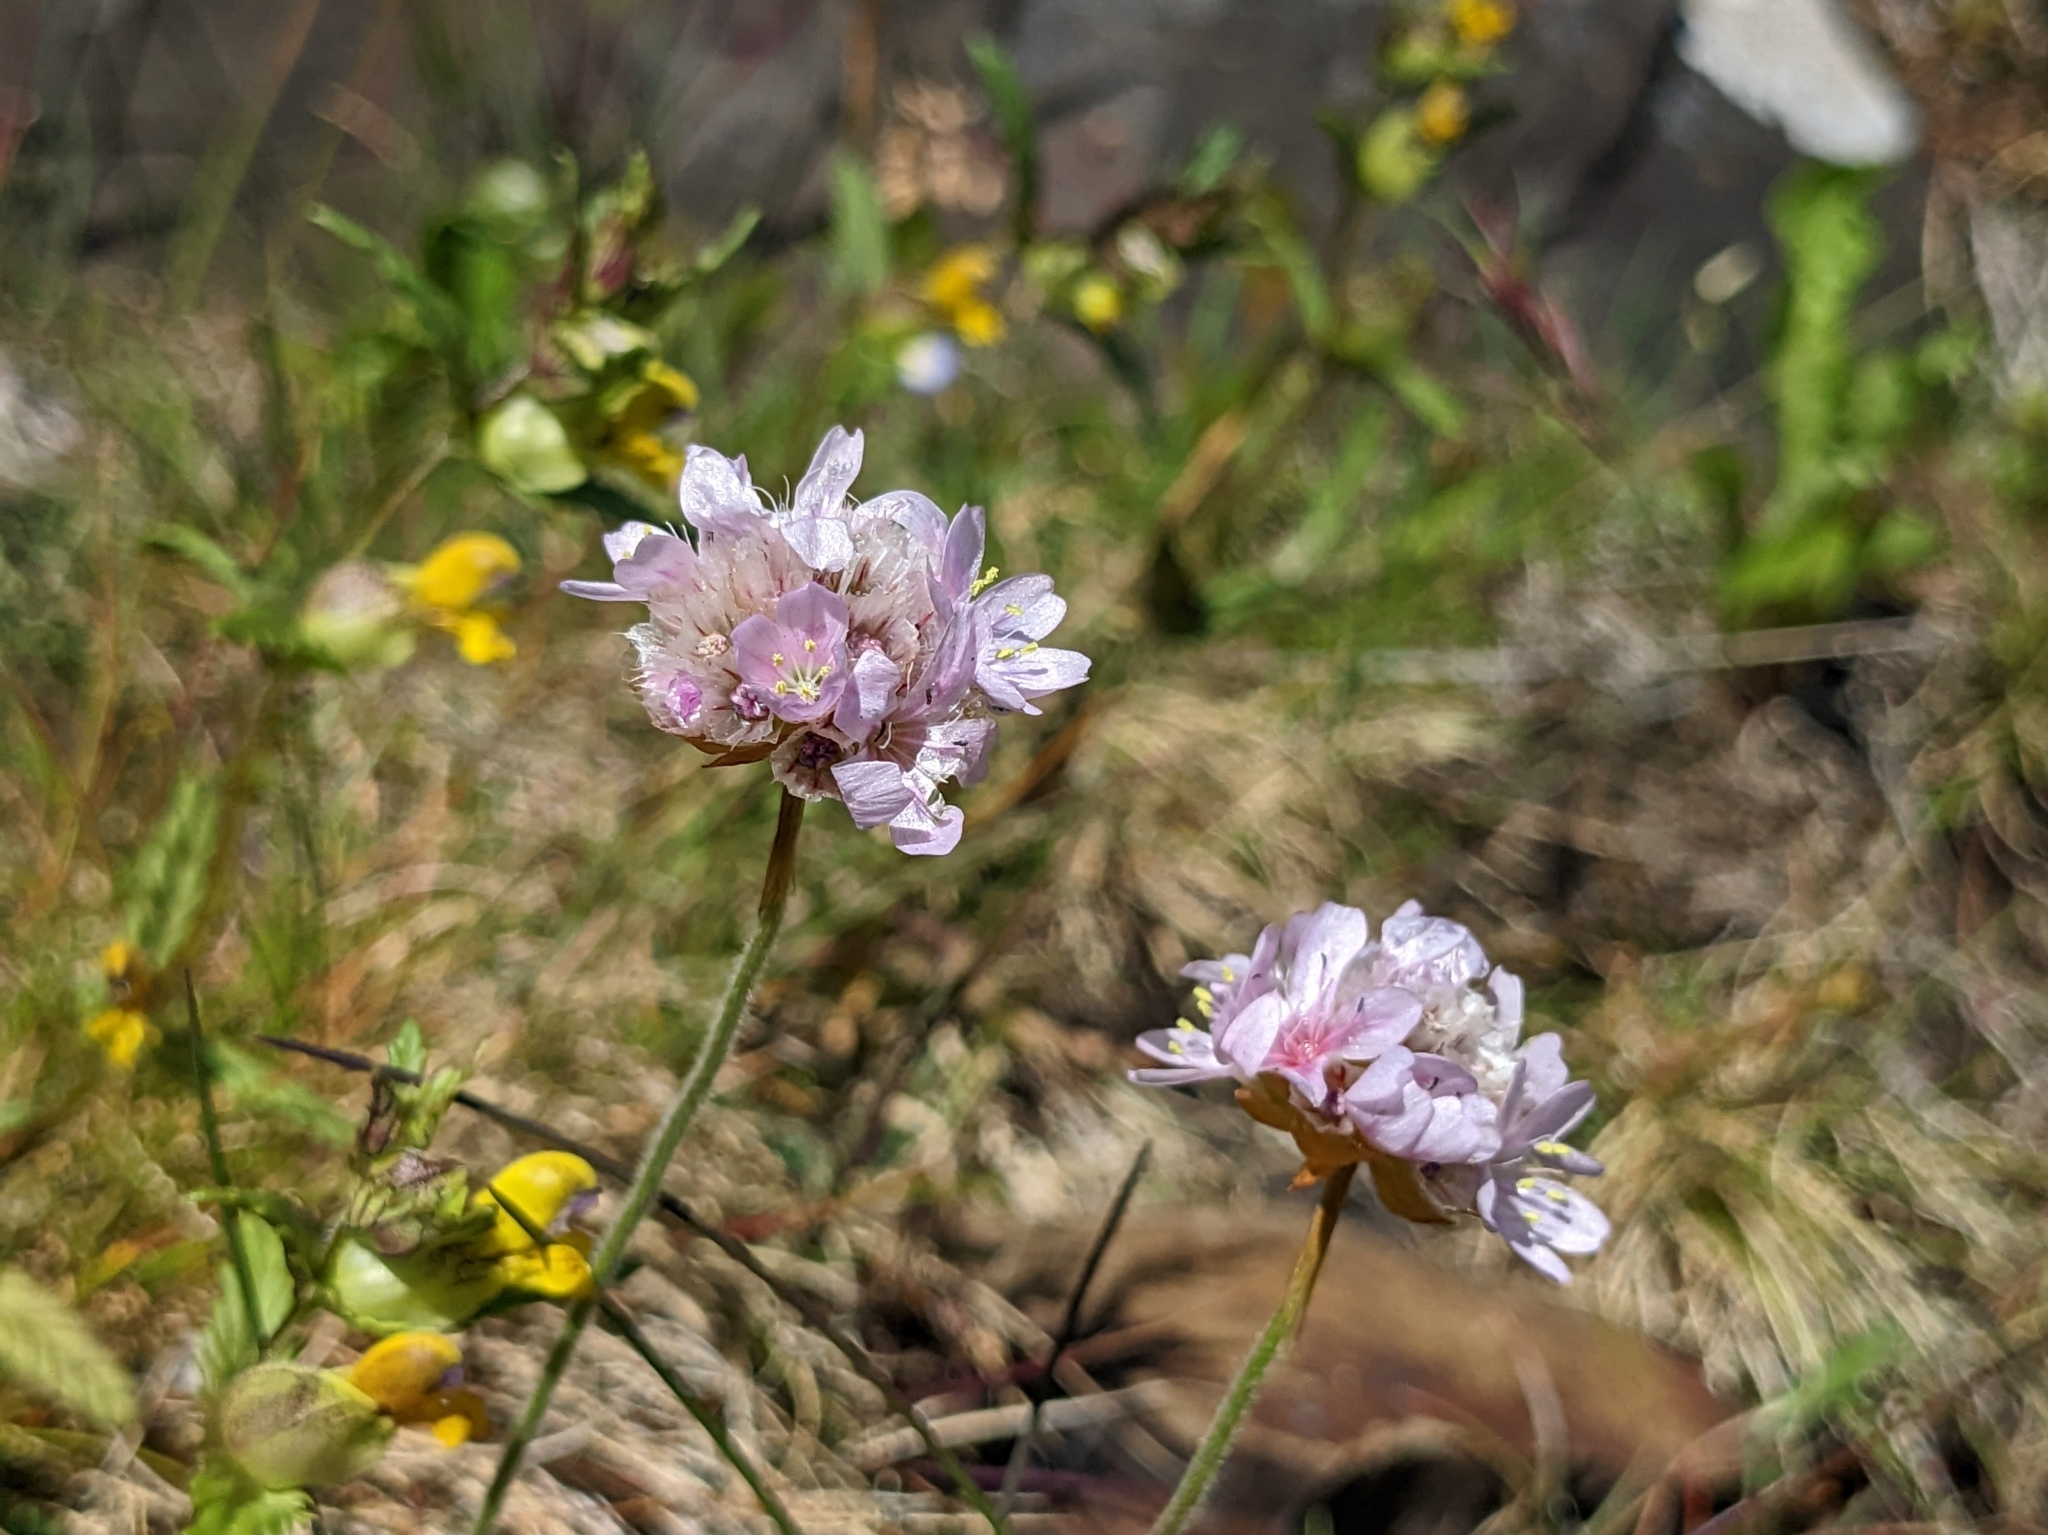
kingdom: Plantae
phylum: Tracheophyta
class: Magnoliopsida
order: Caryophyllales
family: Plumbaginaceae
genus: Armeria
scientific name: Armeria maritima
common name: Thrift
